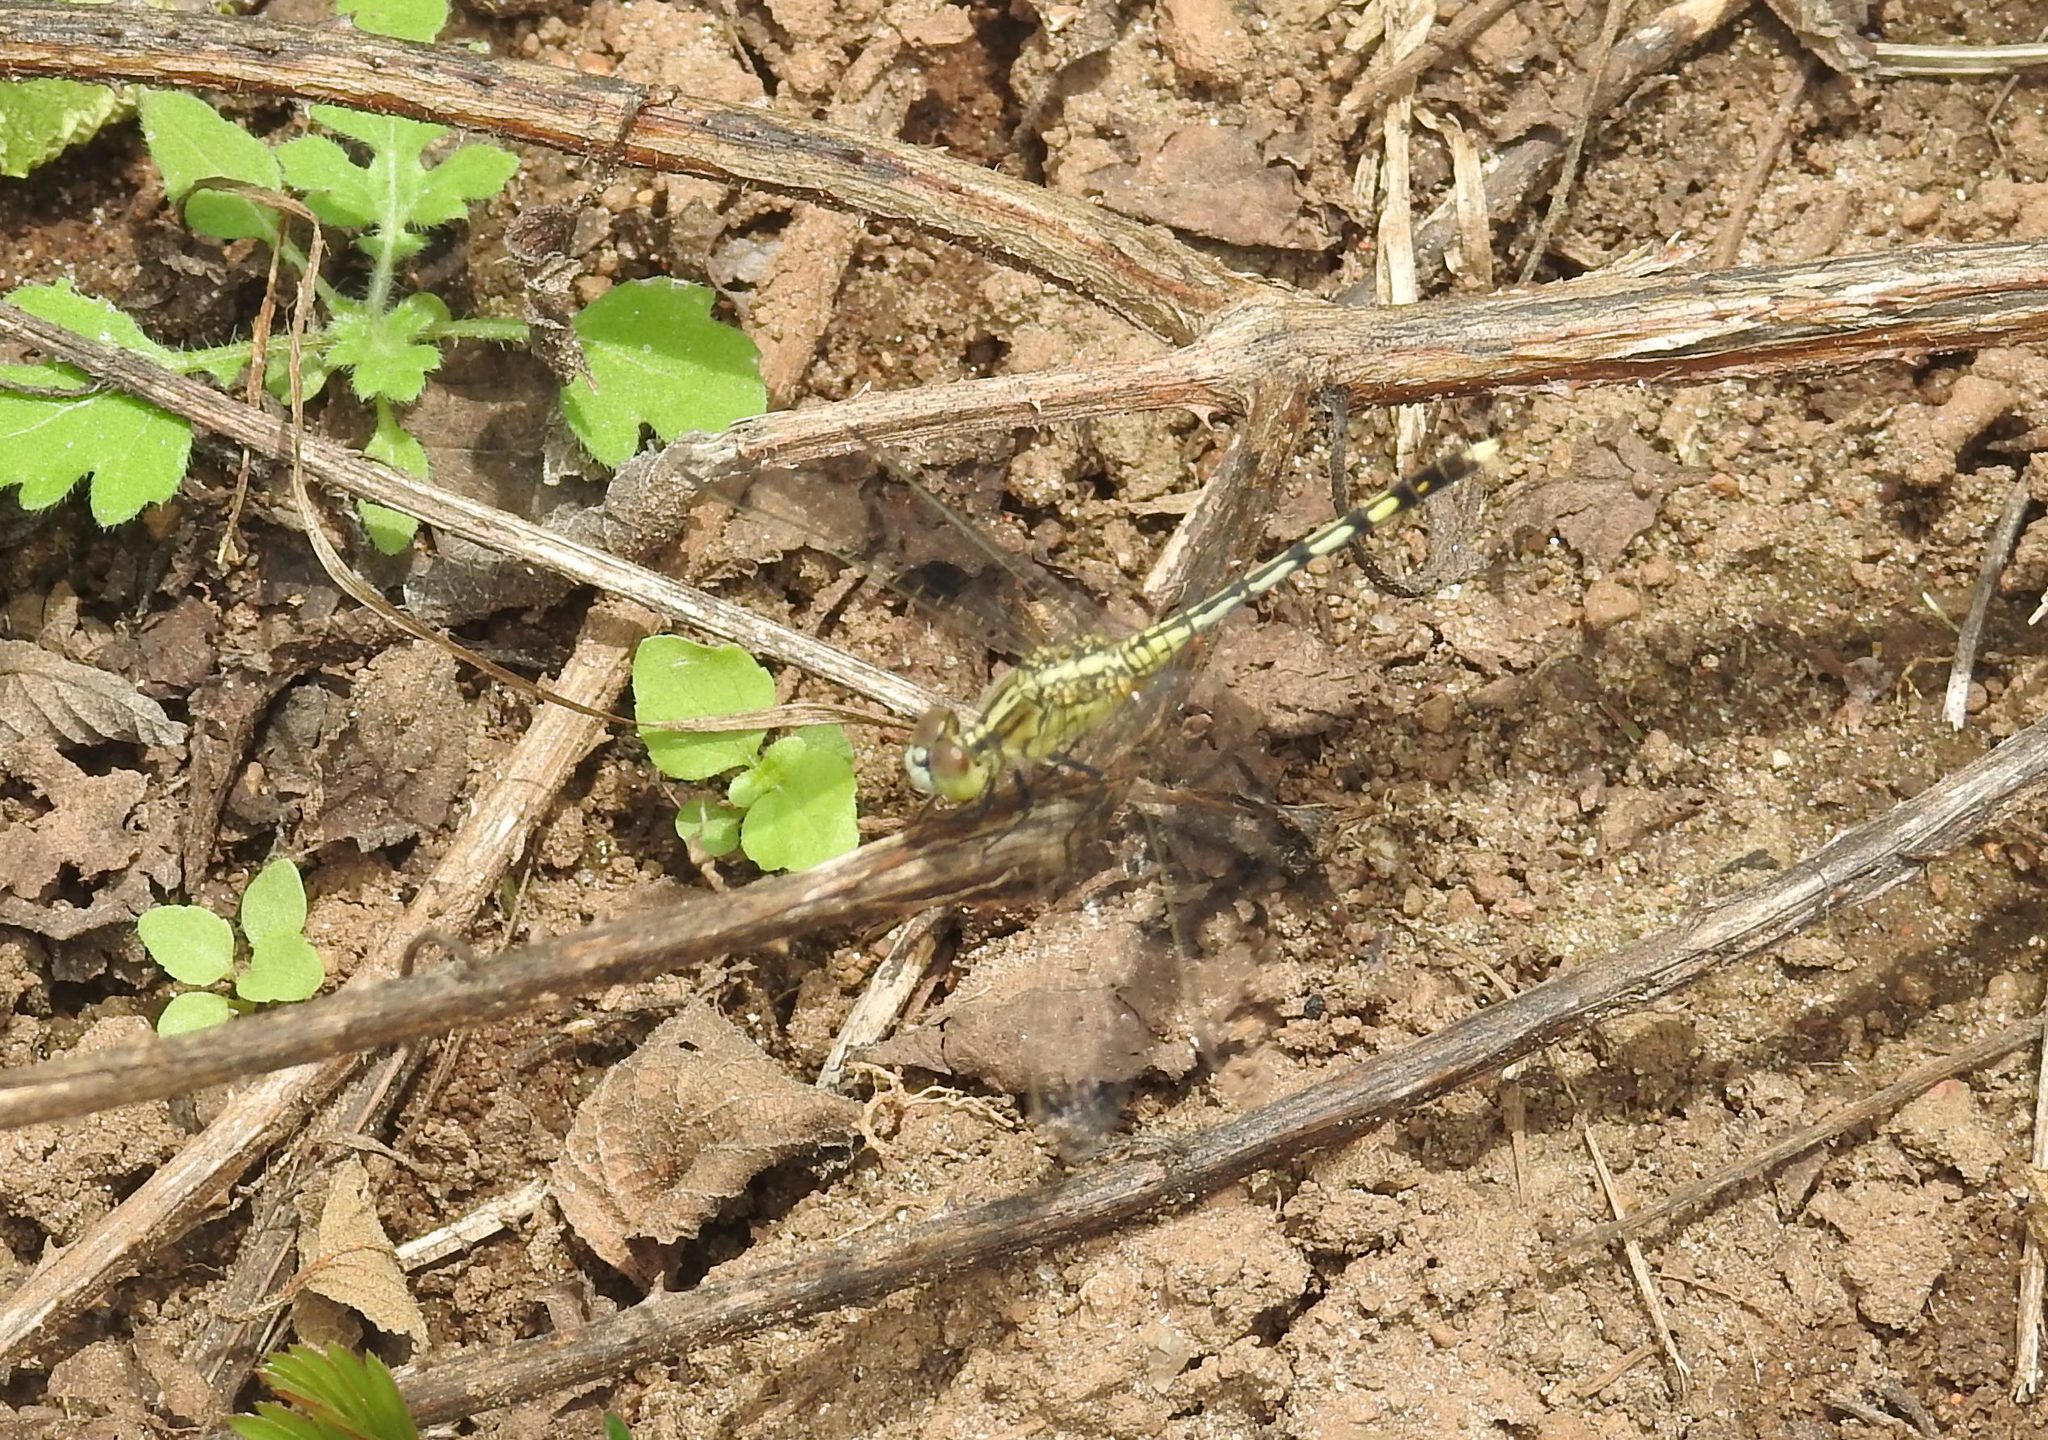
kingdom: Animalia
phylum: Arthropoda
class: Insecta
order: Odonata
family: Libellulidae
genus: Diplacodes
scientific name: Diplacodes trivialis
